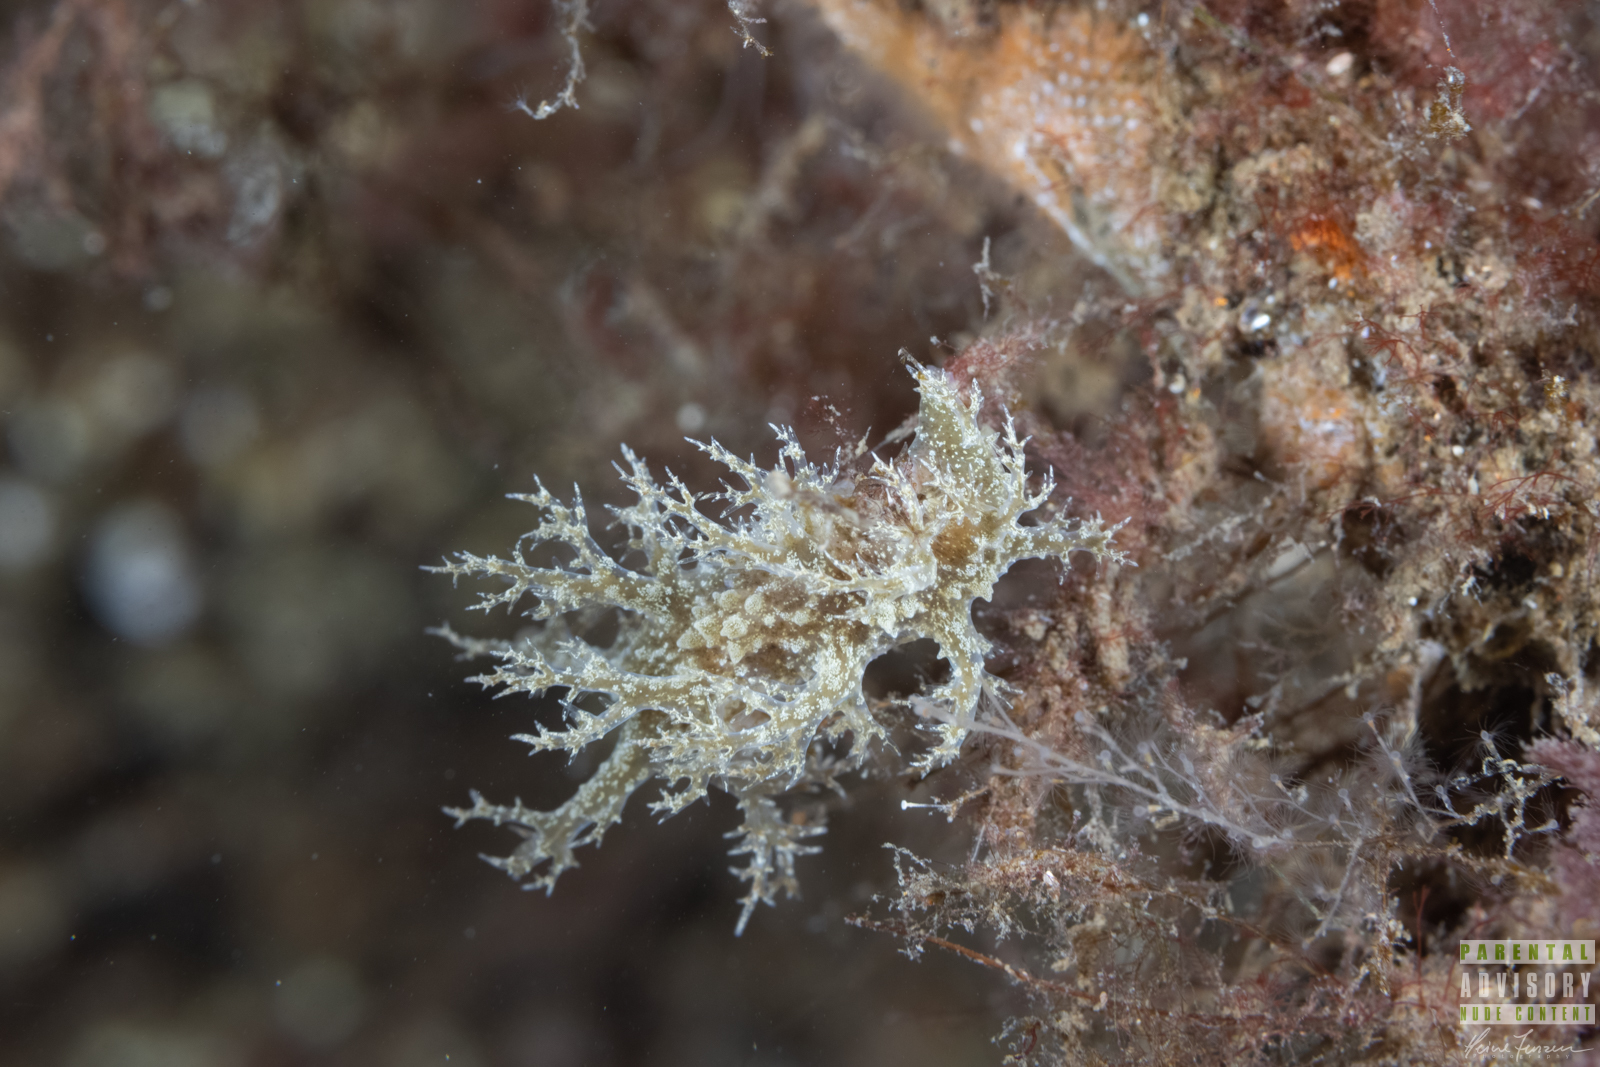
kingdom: Animalia
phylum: Mollusca
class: Gastropoda
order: Nudibranchia
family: Dendronotidae
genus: Dendronotus
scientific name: Dendronotus europaeus
